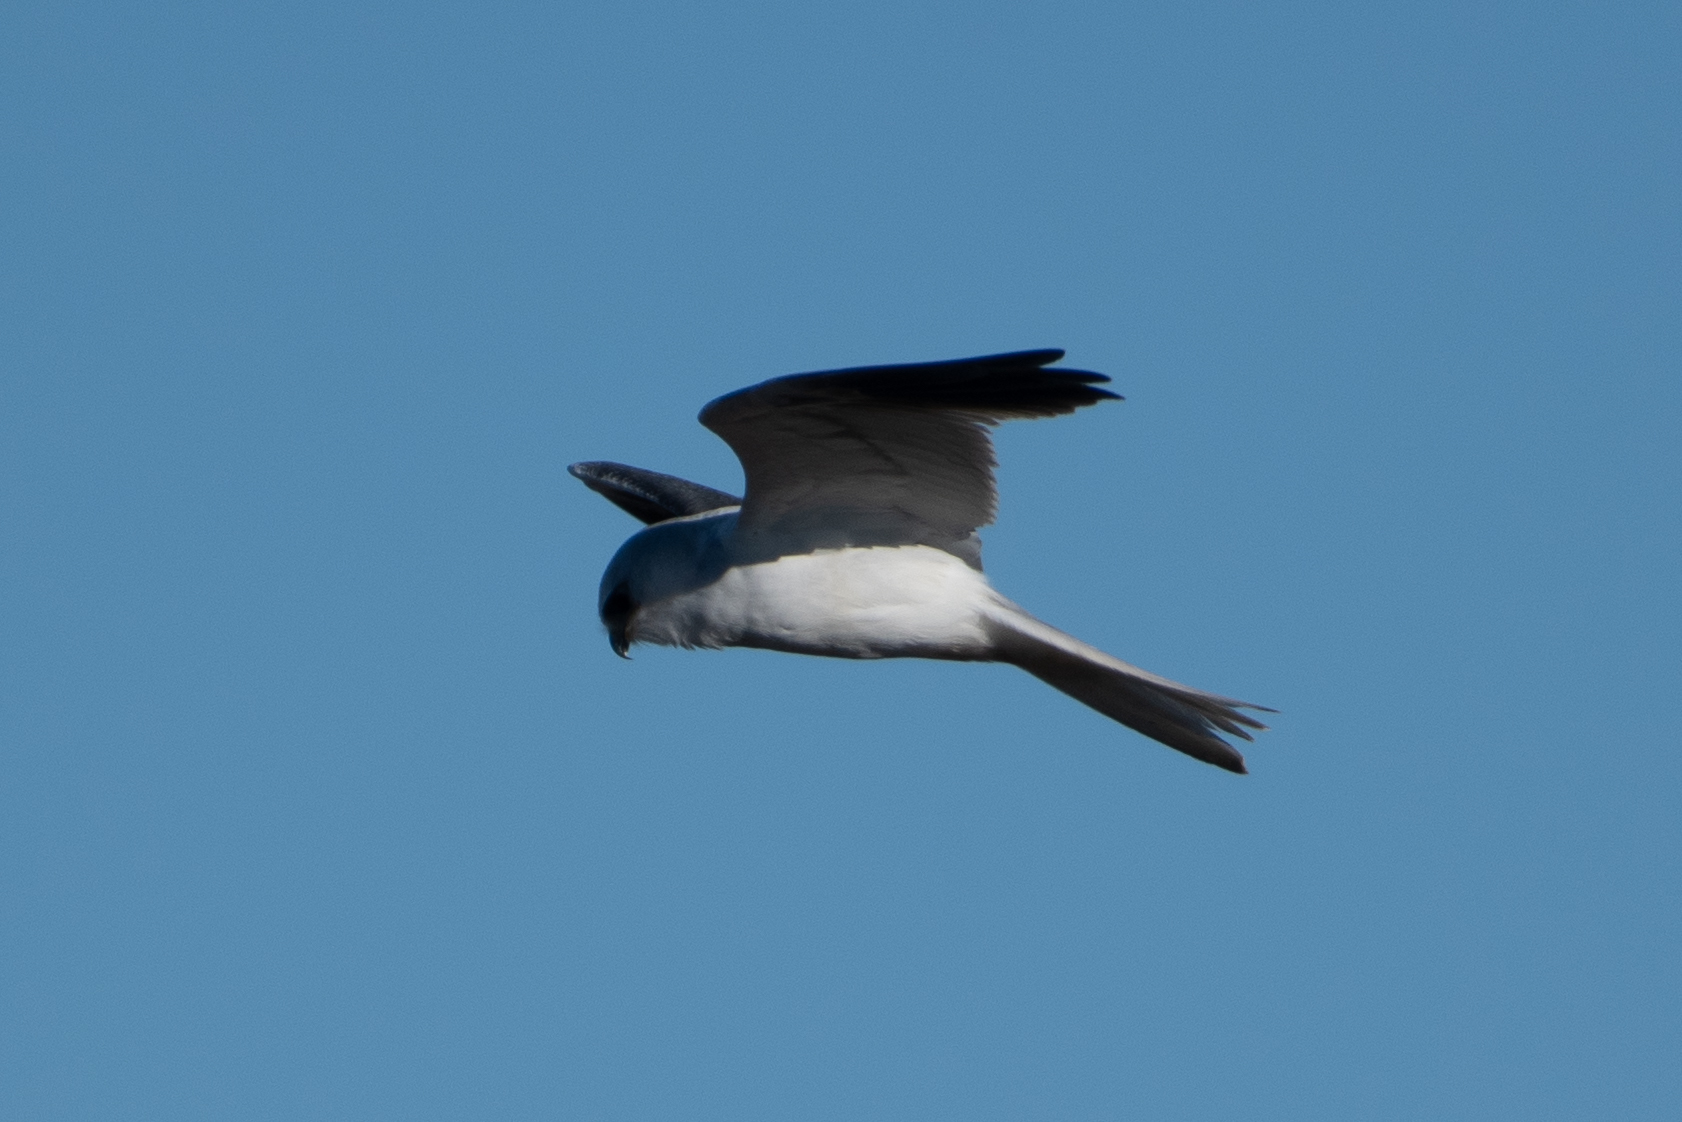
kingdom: Animalia
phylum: Chordata
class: Aves
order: Accipitriformes
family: Accipitridae
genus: Elanus
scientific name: Elanus leucurus
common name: White-tailed kite
